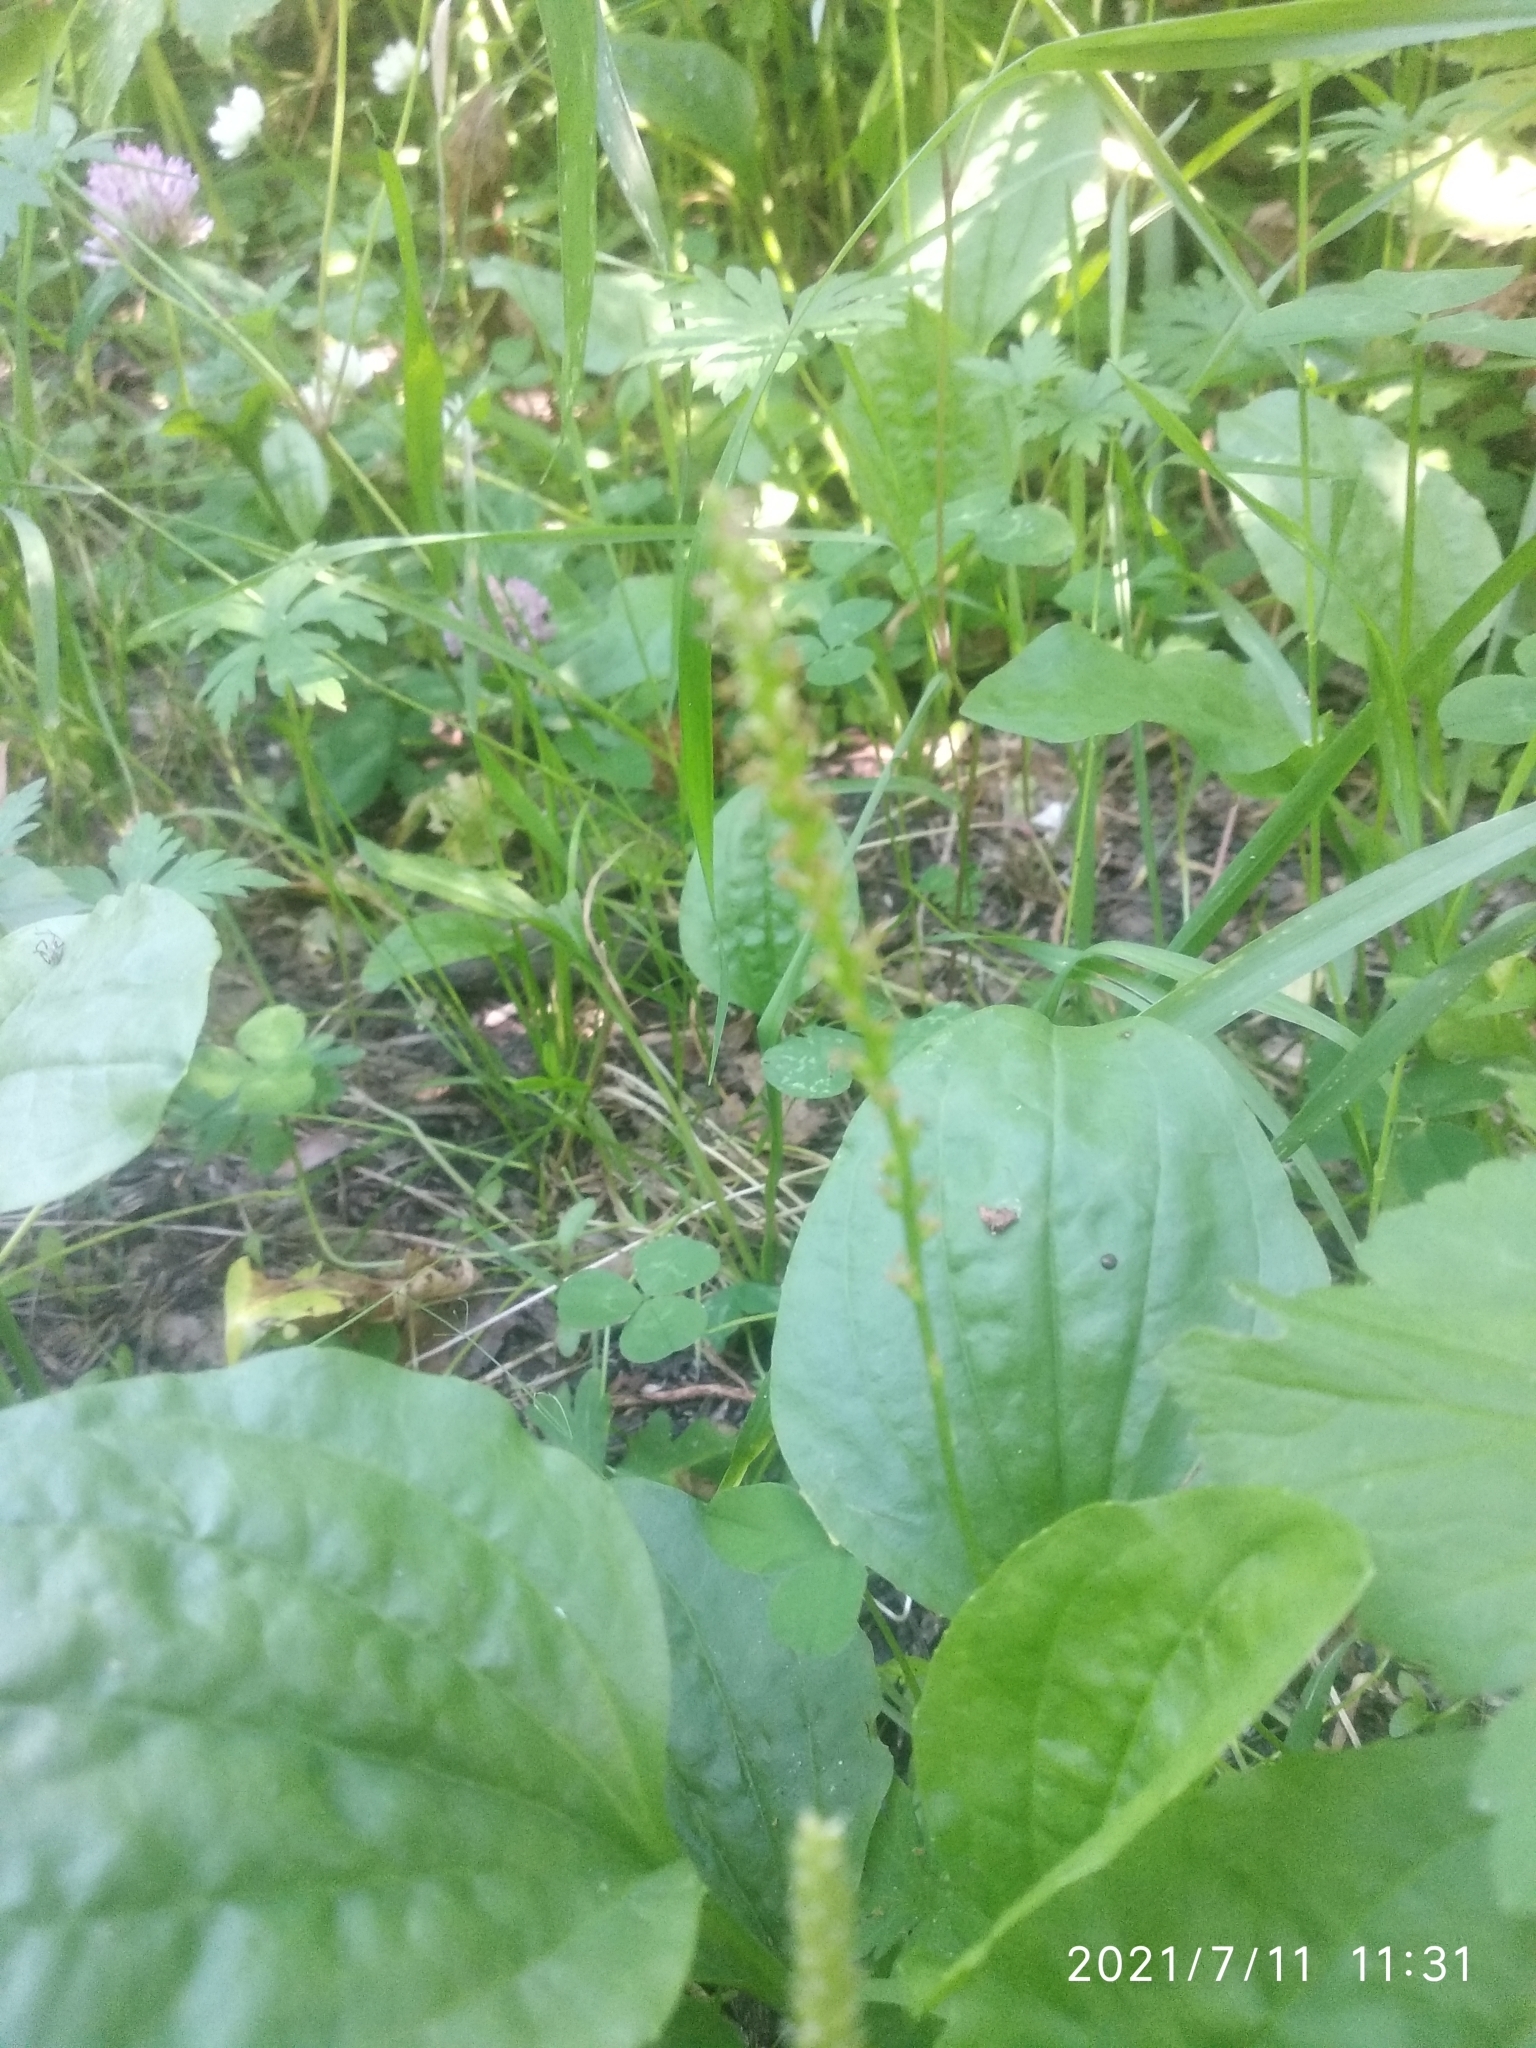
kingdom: Plantae
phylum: Tracheophyta
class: Magnoliopsida
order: Lamiales
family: Plantaginaceae
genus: Plantago
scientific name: Plantago major
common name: Common plantain
